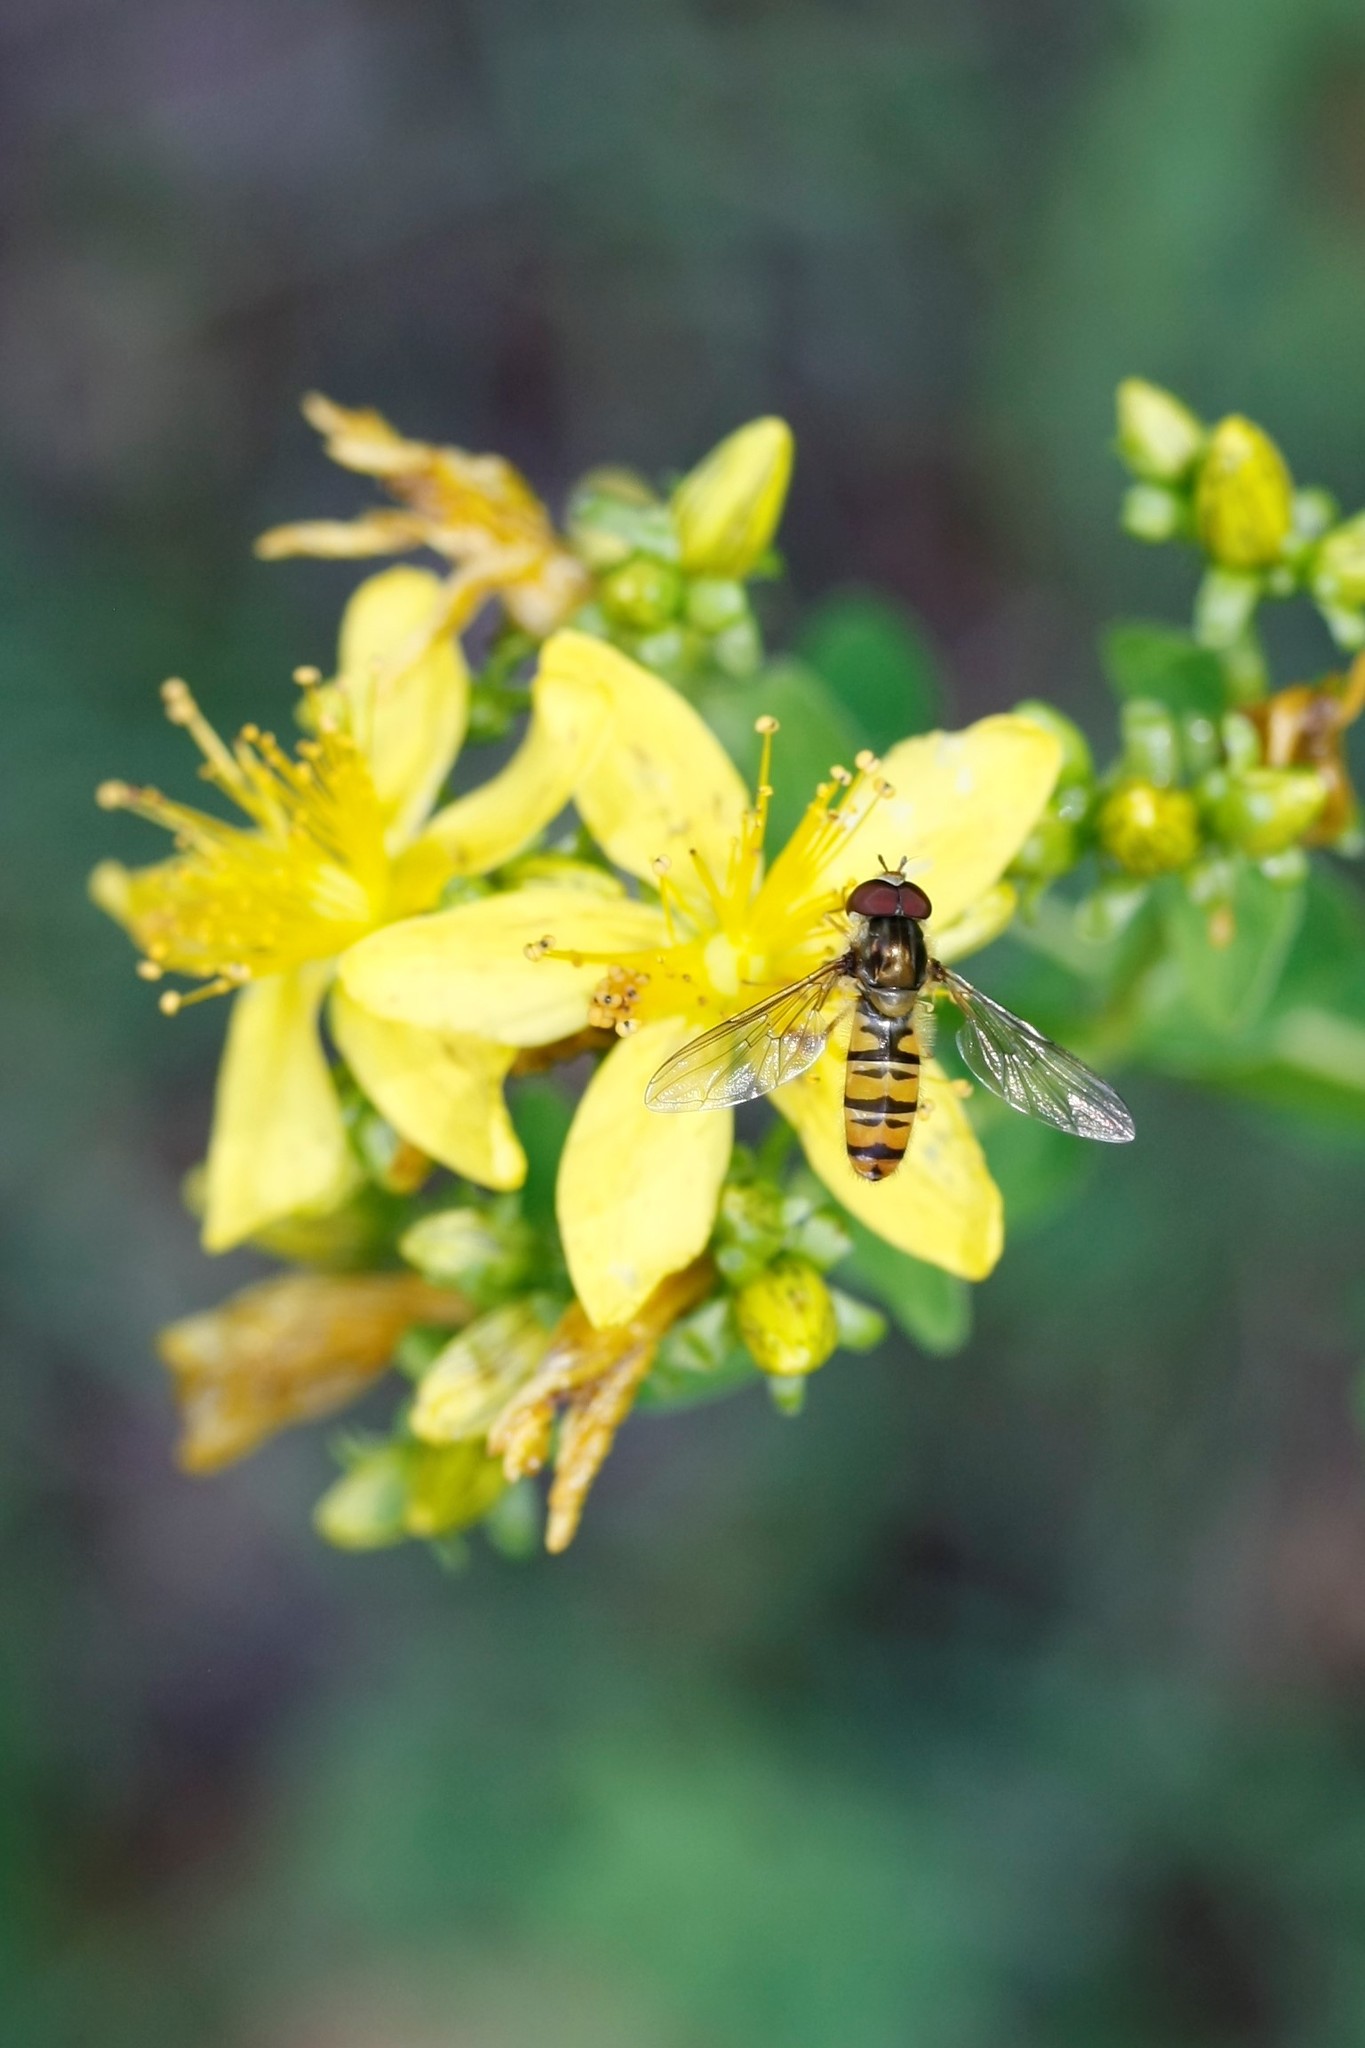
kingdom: Animalia
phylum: Arthropoda
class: Insecta
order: Diptera
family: Syrphidae
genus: Episyrphus
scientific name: Episyrphus balteatus
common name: Marmalade hoverfly
